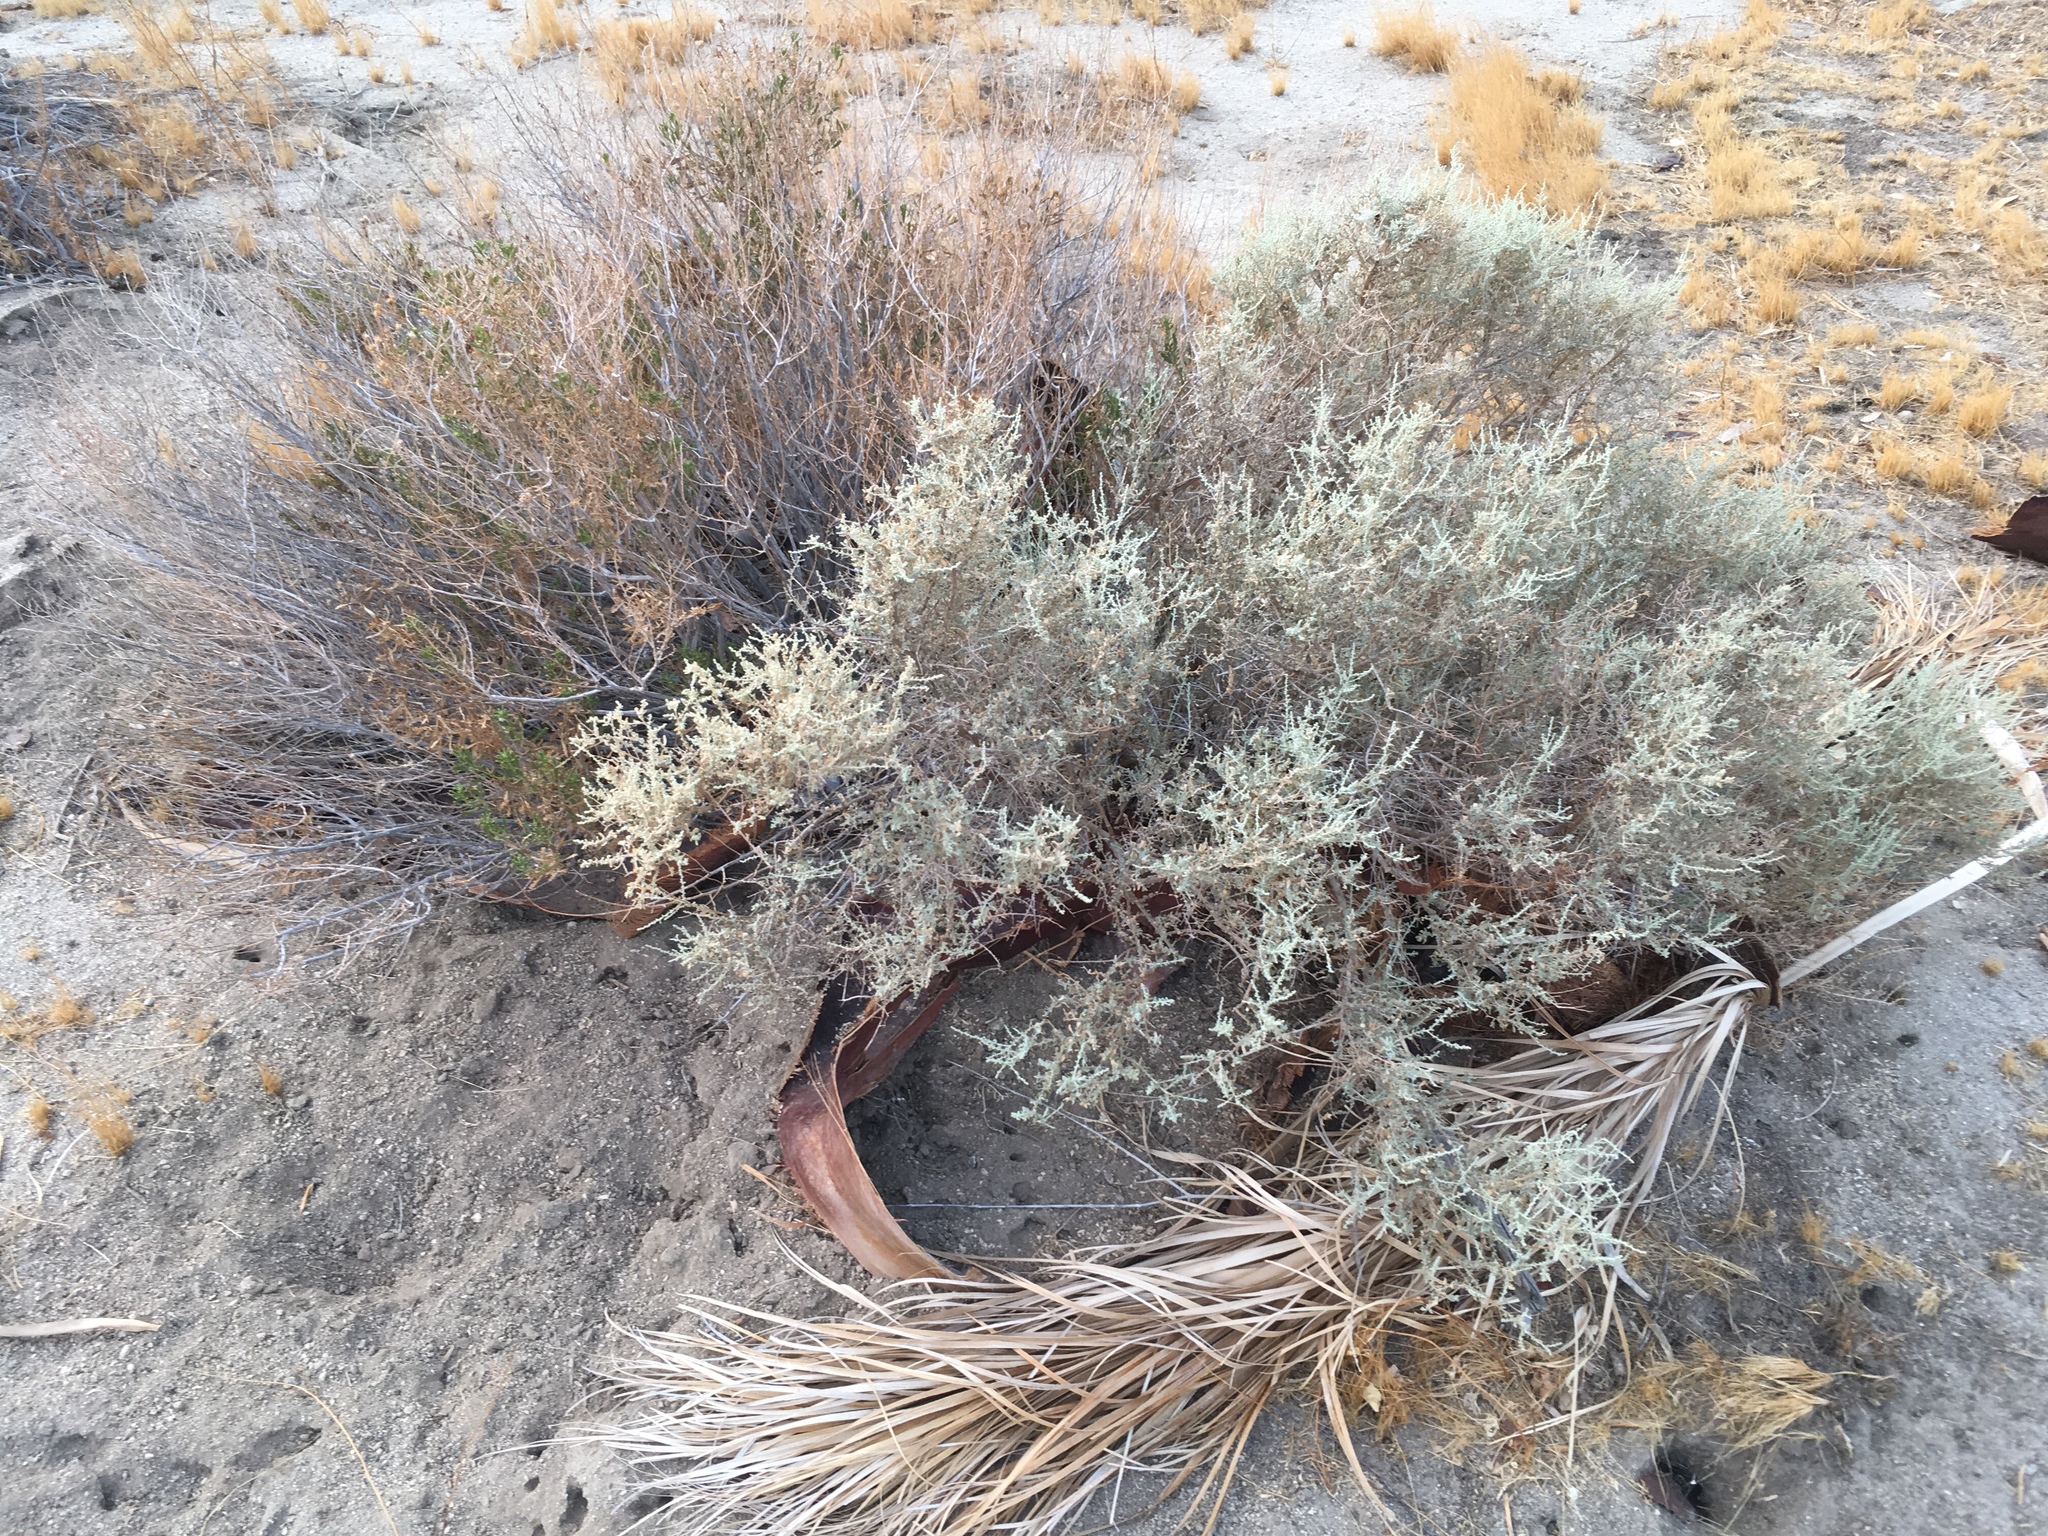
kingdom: Plantae
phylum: Tracheophyta
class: Magnoliopsida
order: Caryophyllales
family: Amaranthaceae
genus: Atriplex
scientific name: Atriplex polycarpa
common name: Desert saltbush
